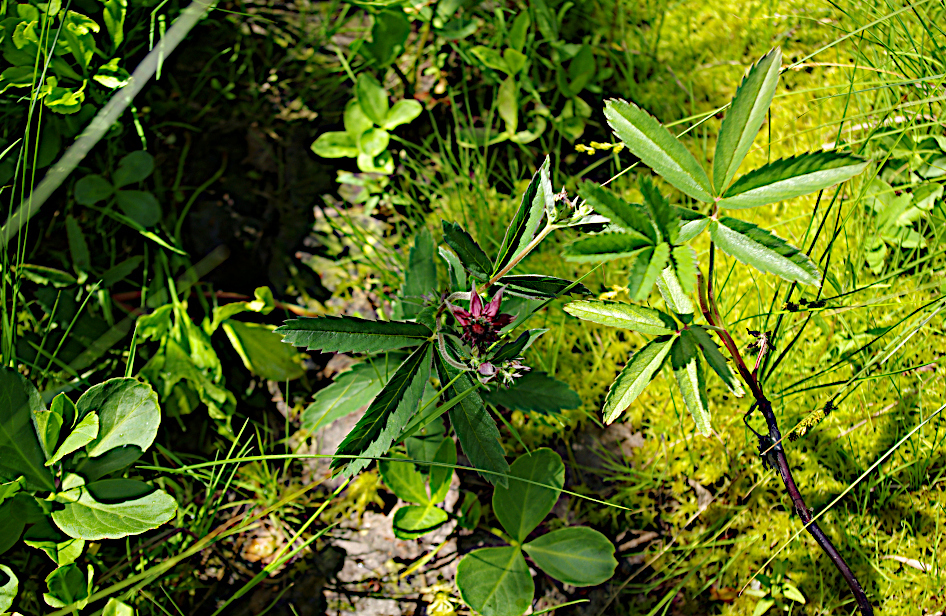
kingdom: Plantae
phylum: Tracheophyta
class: Magnoliopsida
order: Rosales
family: Rosaceae
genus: Comarum
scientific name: Comarum palustre
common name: Marsh cinquefoil
